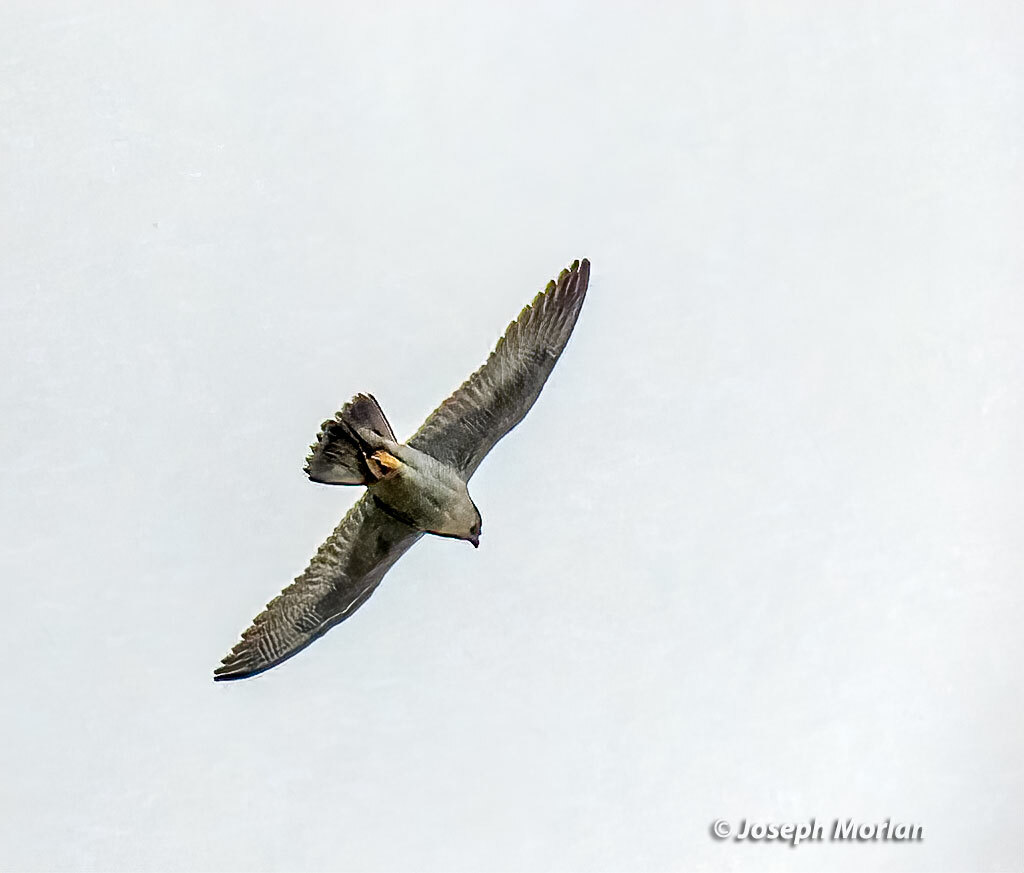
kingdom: Animalia
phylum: Chordata
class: Aves
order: Falconiformes
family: Falconidae
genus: Falco
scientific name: Falco peregrinus
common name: Peregrine falcon
